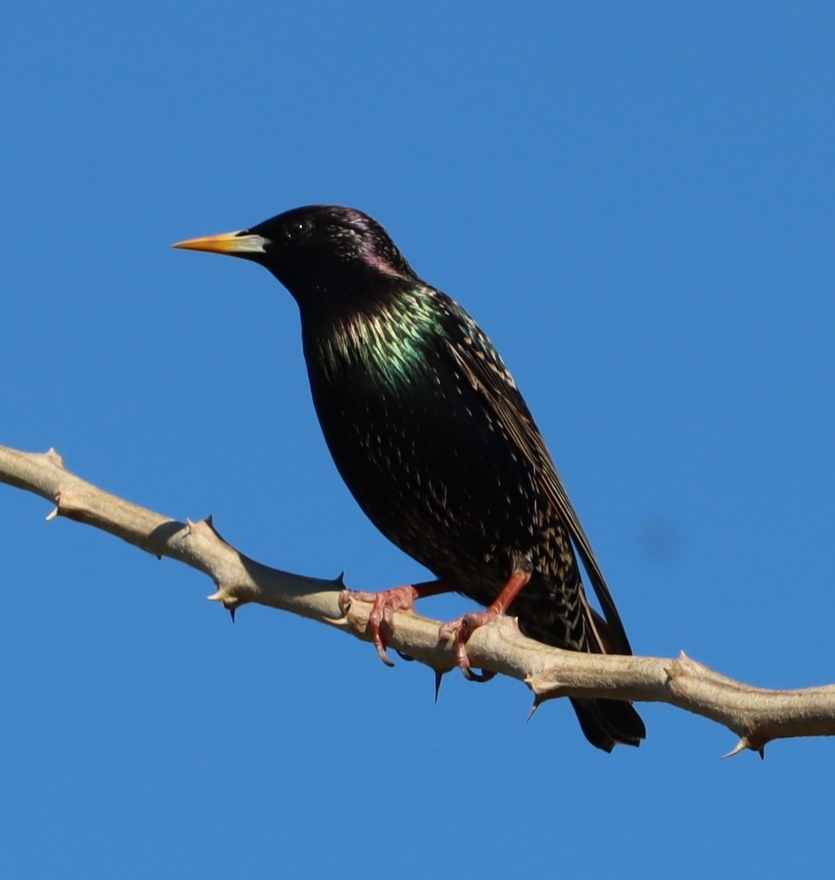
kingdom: Animalia
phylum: Chordata
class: Aves
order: Passeriformes
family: Sturnidae
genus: Sturnus
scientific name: Sturnus vulgaris
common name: Common starling
